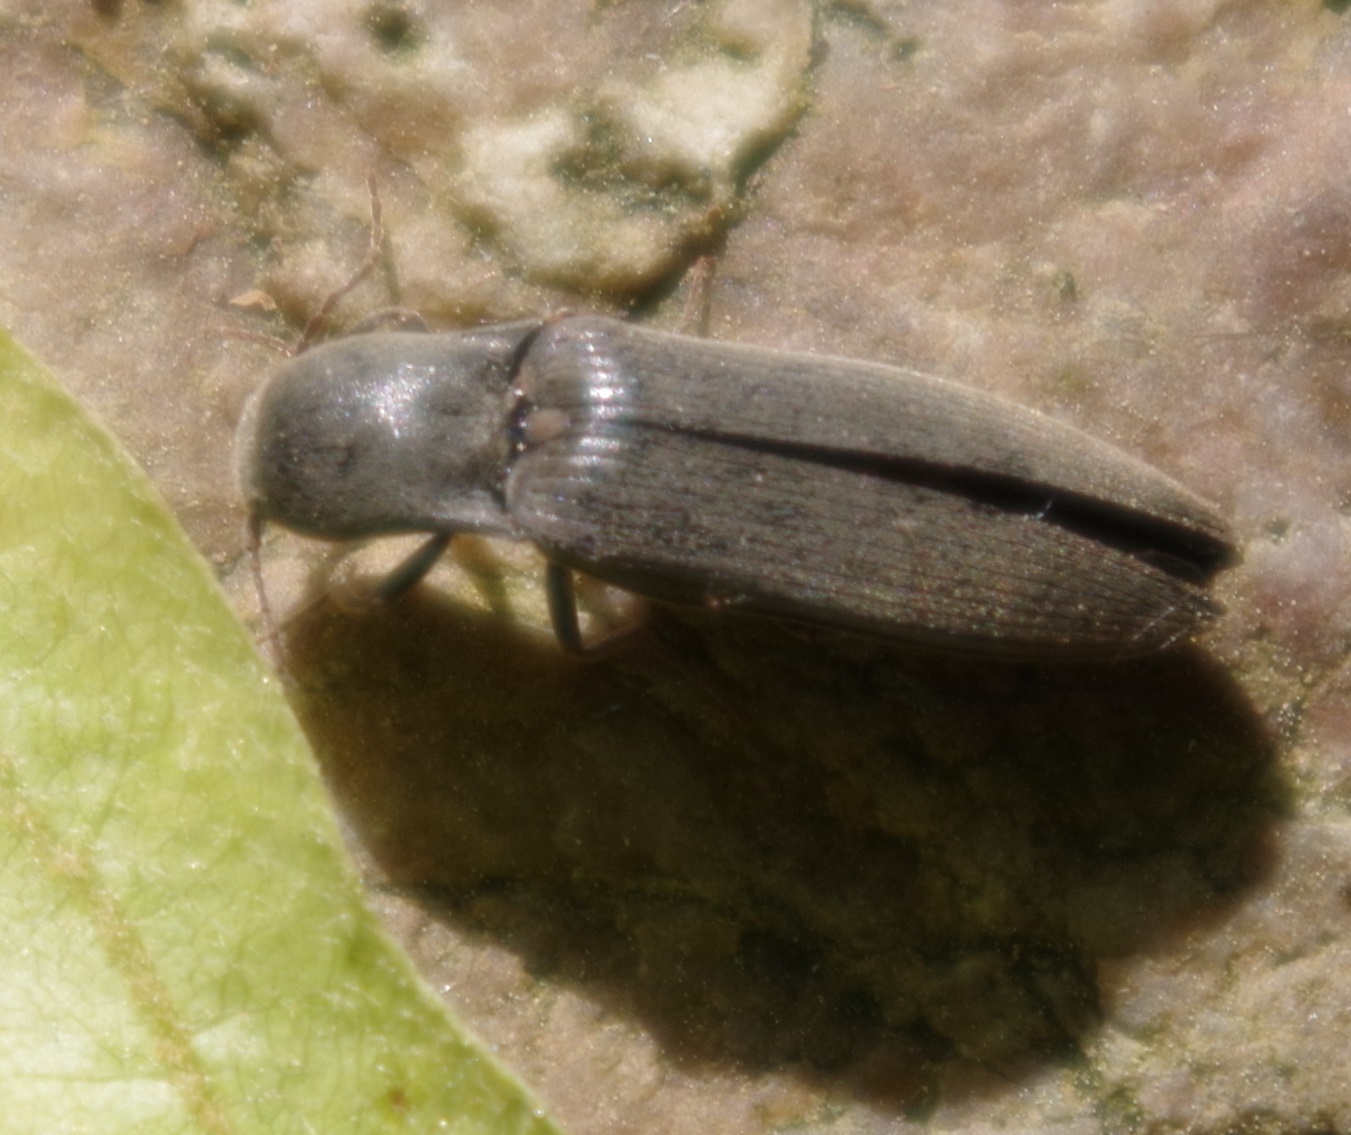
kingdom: Animalia
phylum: Arthropoda
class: Insecta
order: Coleoptera
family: Elateridae
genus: Agriotes
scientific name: Agriotes pilosellus
